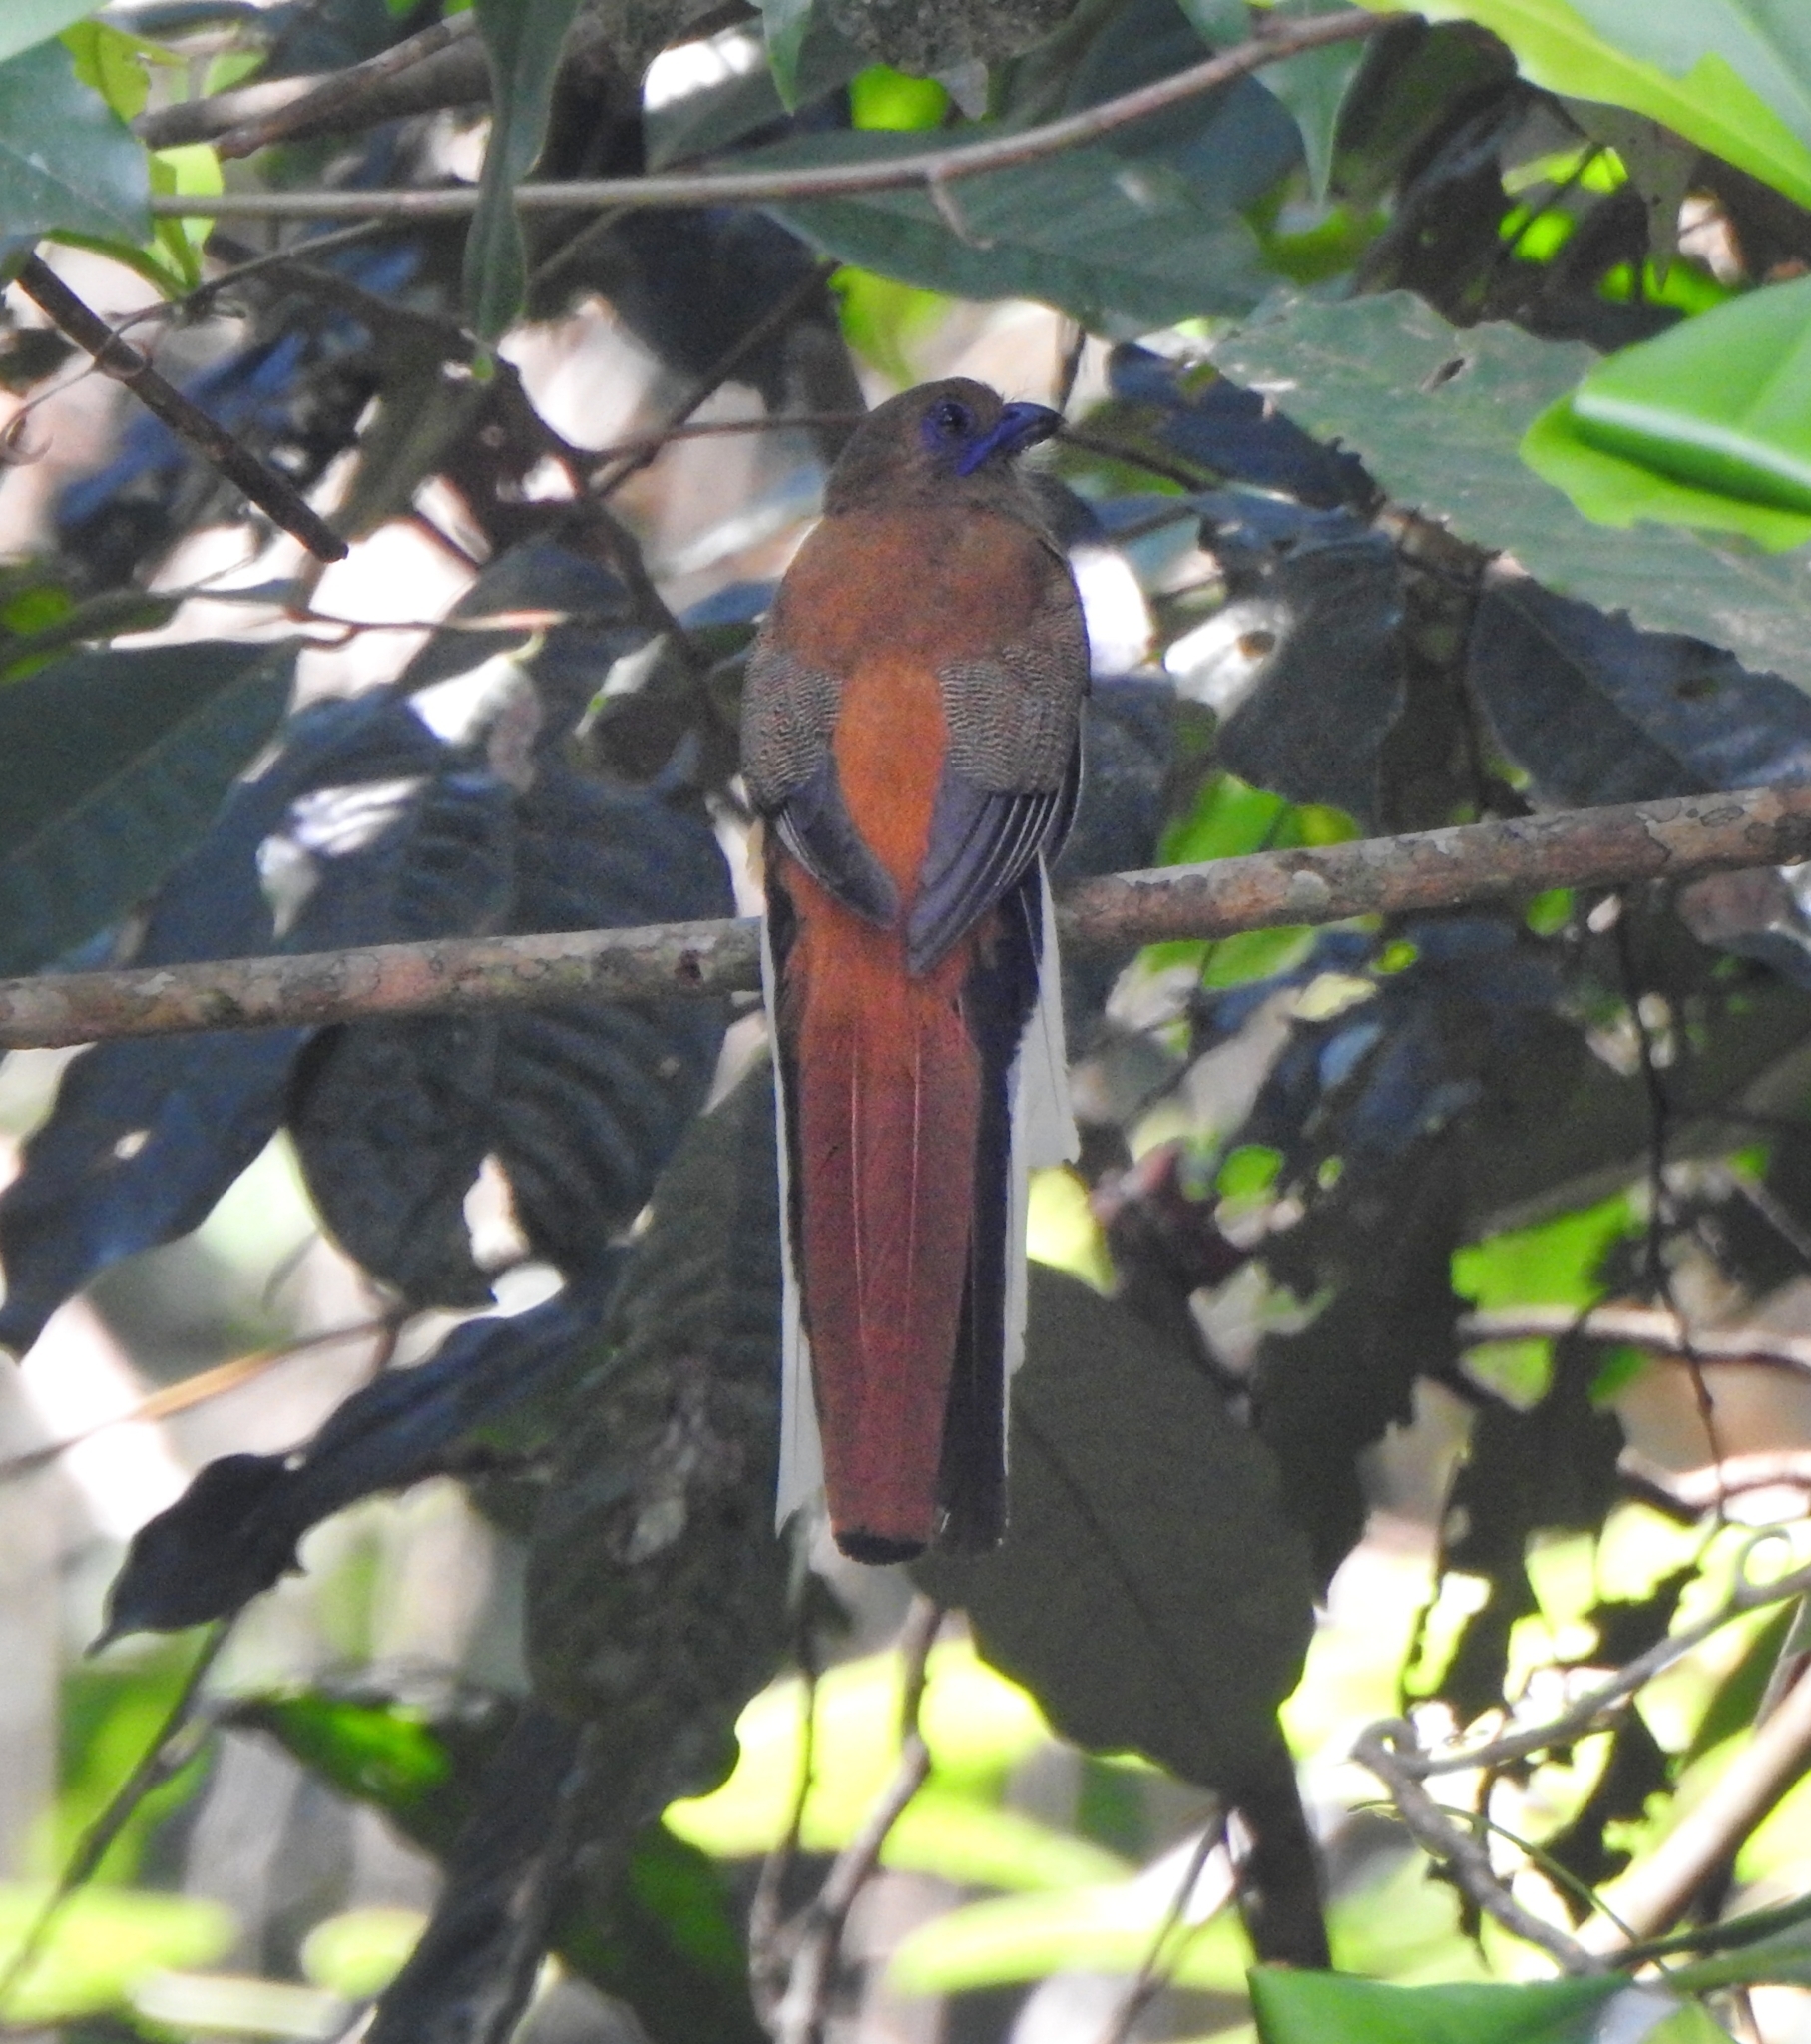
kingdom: Animalia
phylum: Chordata
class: Aves
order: Trogoniformes
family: Trogonidae
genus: Harpactes
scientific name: Harpactes fasciatus
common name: Malabar trogon
